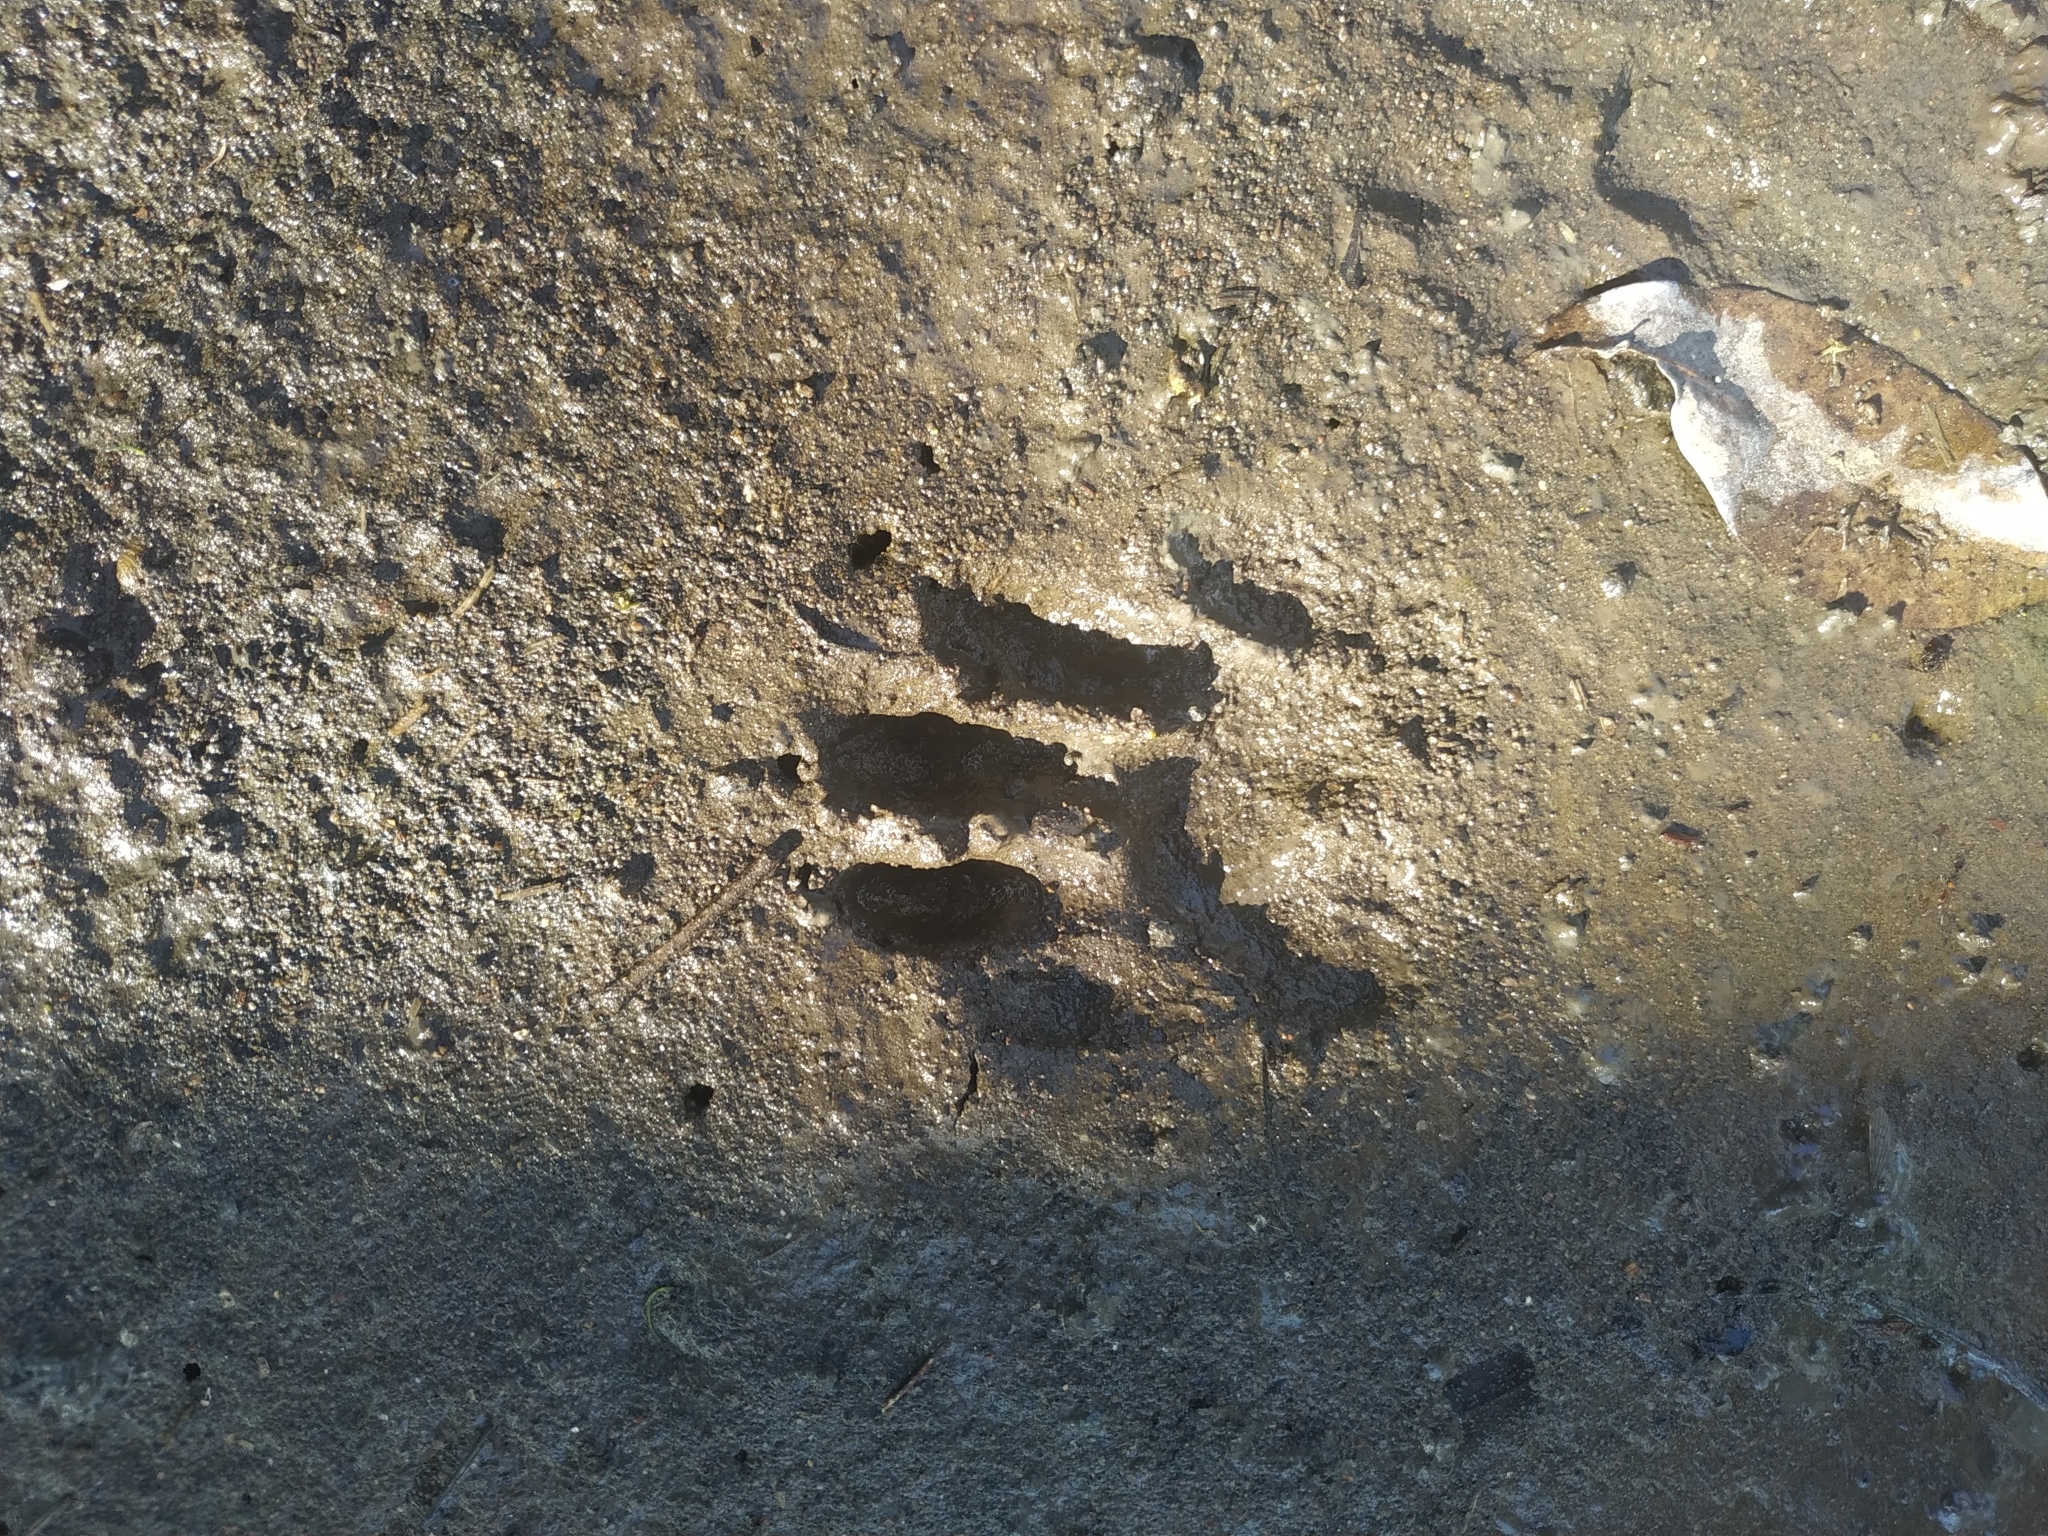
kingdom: Animalia
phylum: Chordata
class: Mammalia
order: Carnivora
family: Procyonidae
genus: Procyon
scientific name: Procyon cancrivorus
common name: Crab-eating raccoon
